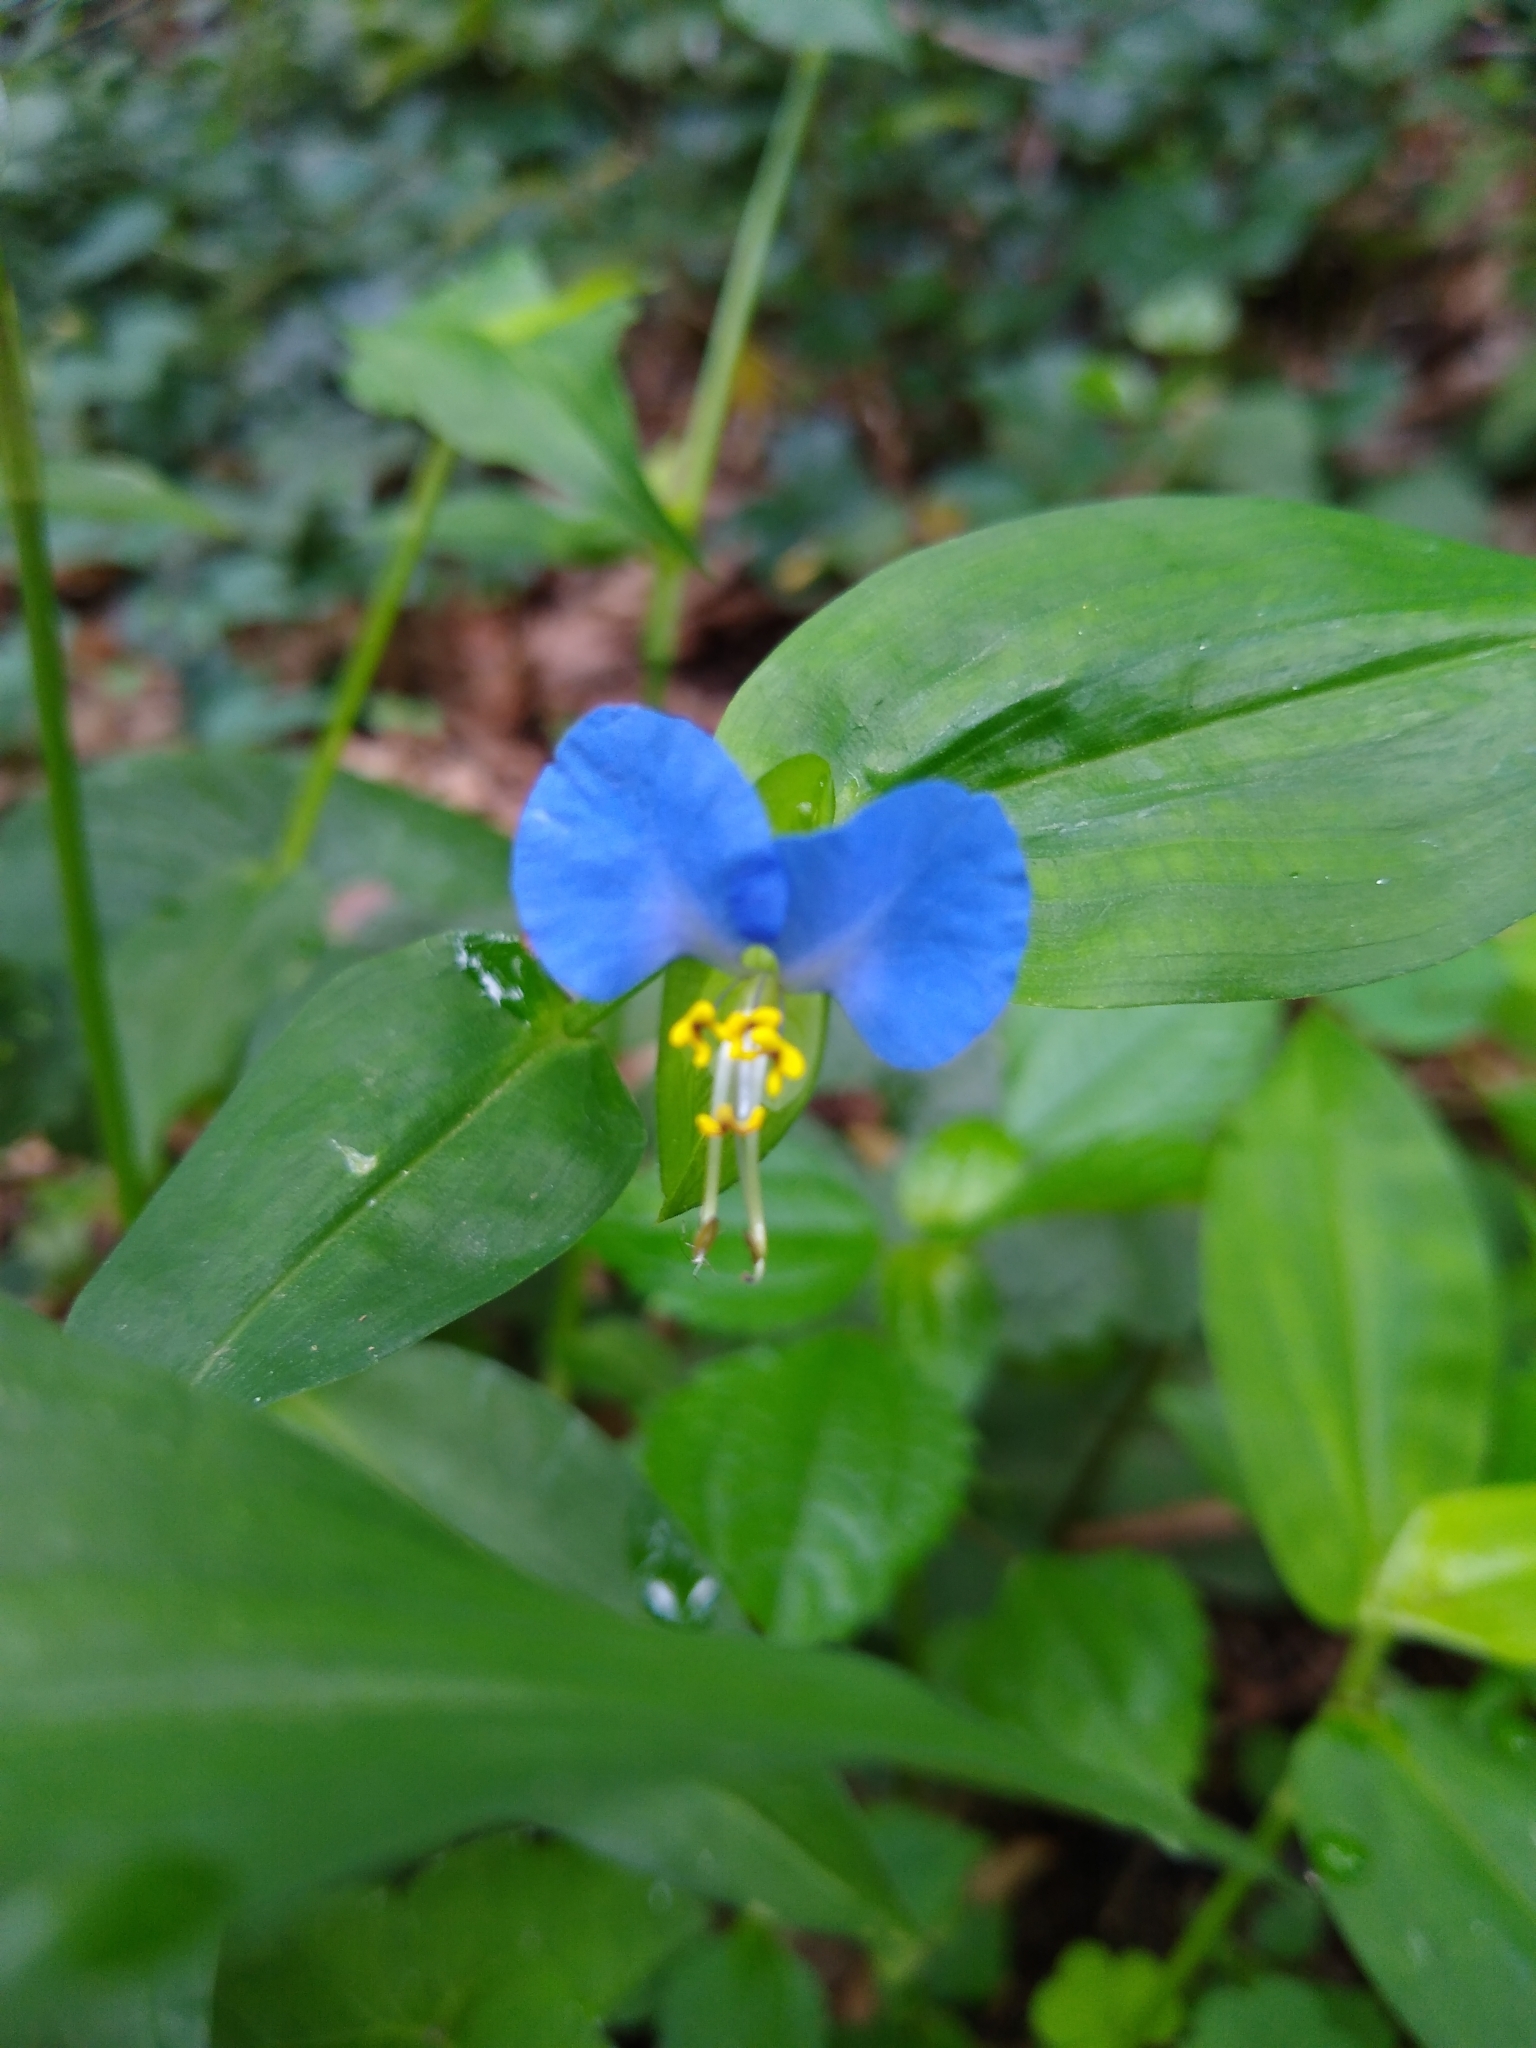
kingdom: Plantae
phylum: Tracheophyta
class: Liliopsida
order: Commelinales
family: Commelinaceae
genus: Commelina
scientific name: Commelina communis
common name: Asiatic dayflower
